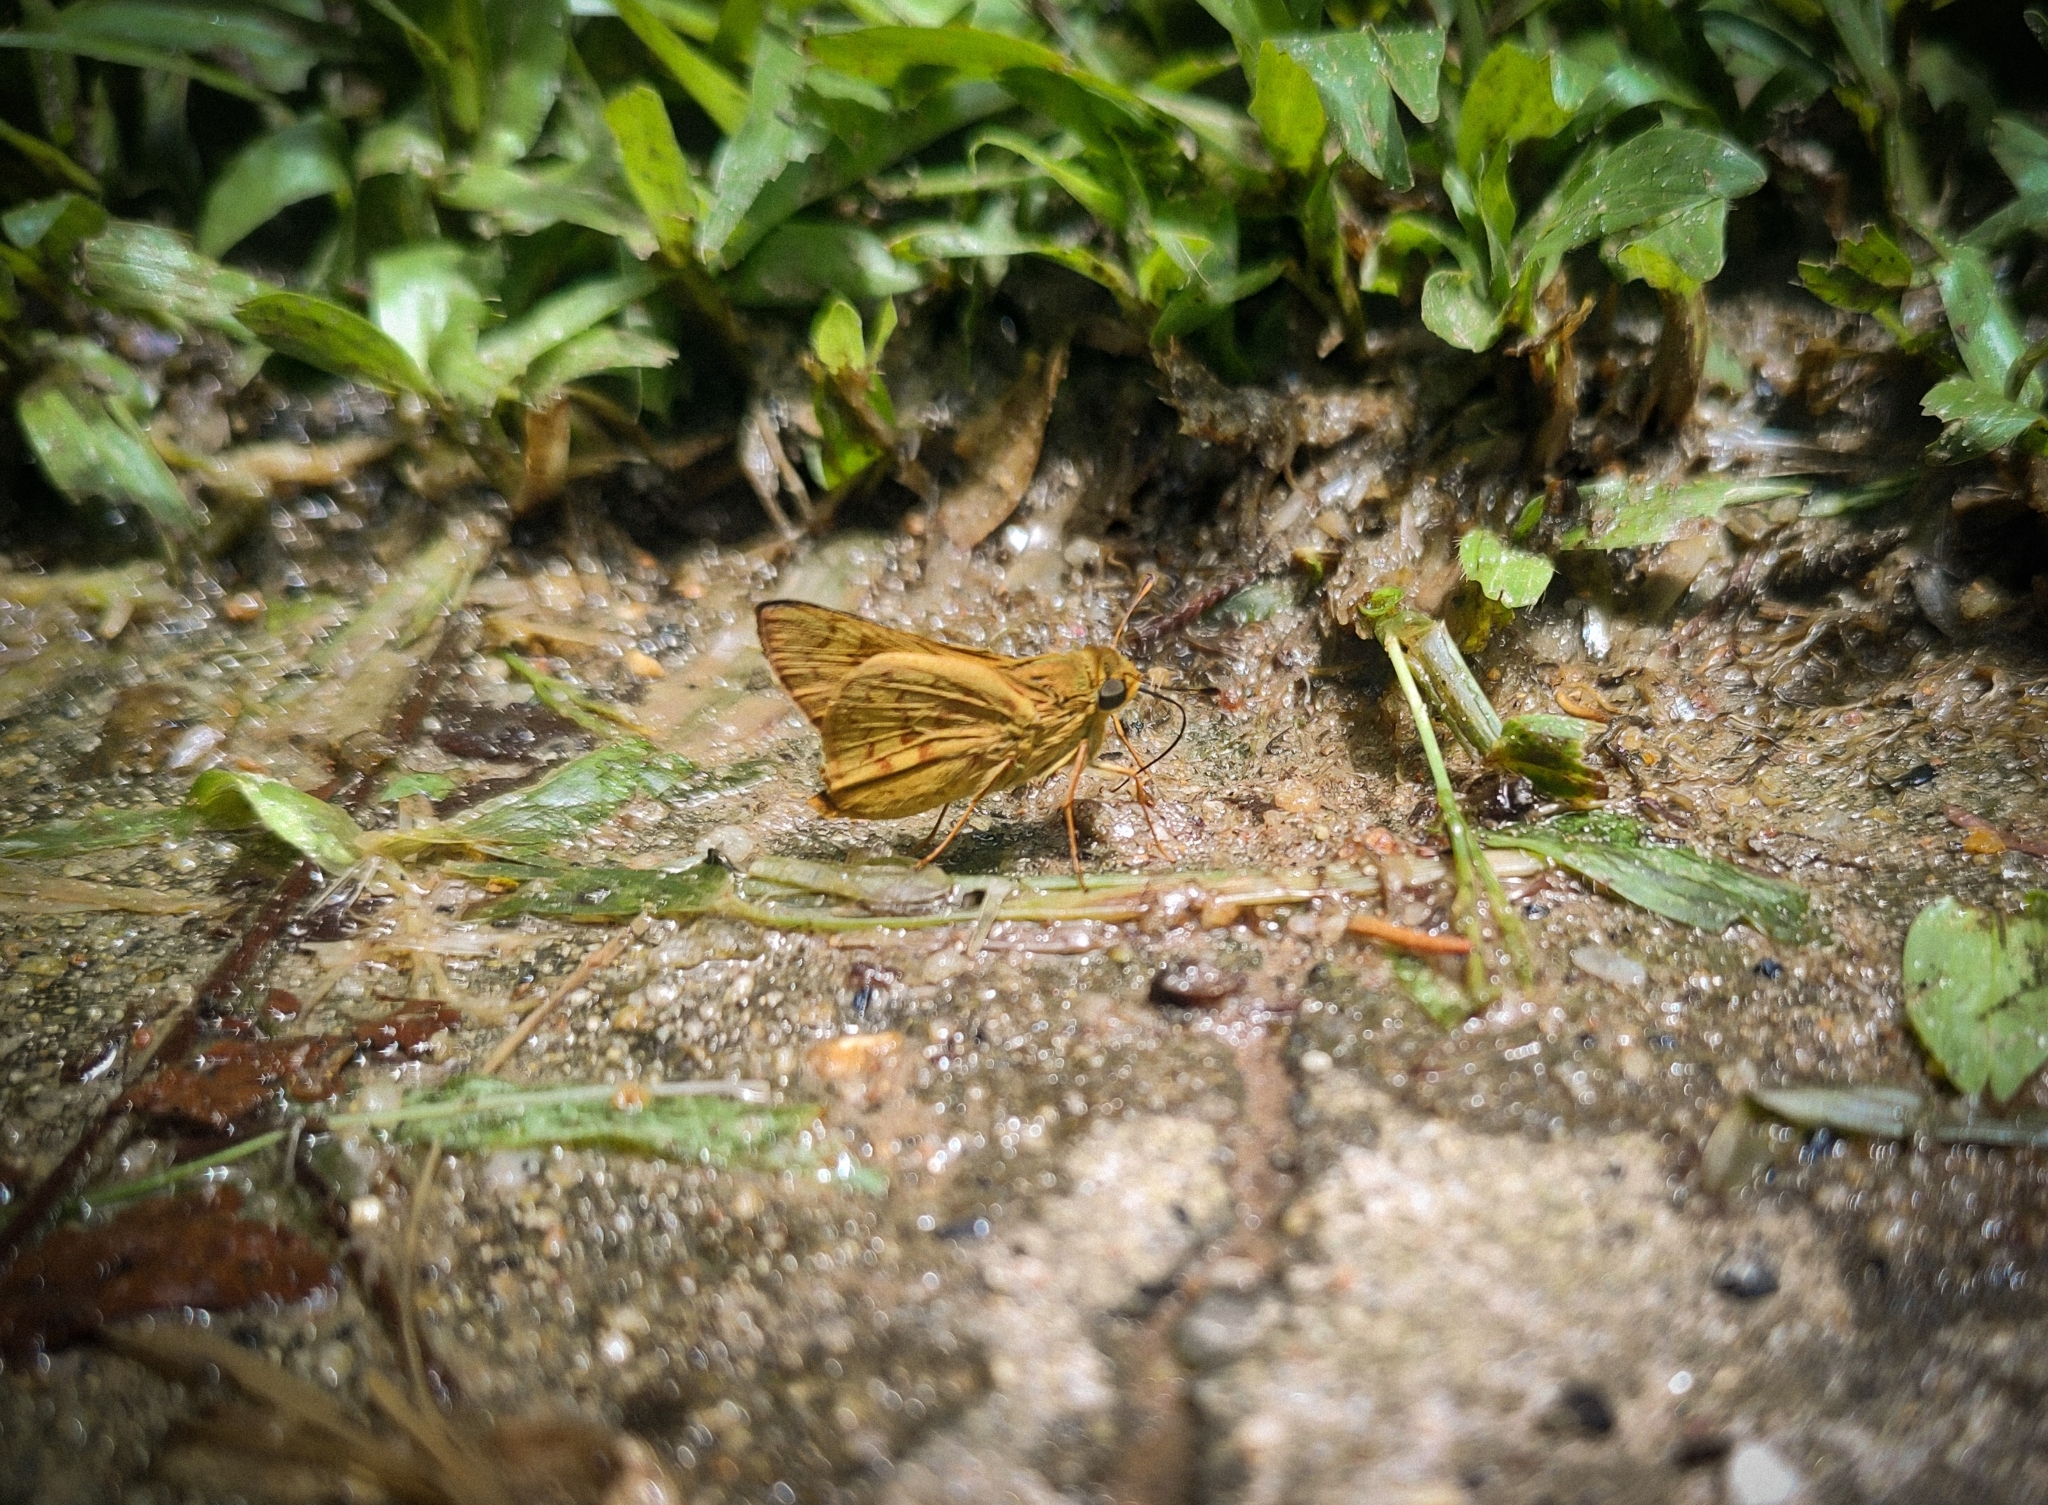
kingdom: Animalia
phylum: Arthropoda
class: Insecta
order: Lepidoptera
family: Hesperiidae
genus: Phemiades
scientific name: Phemiades pohli
